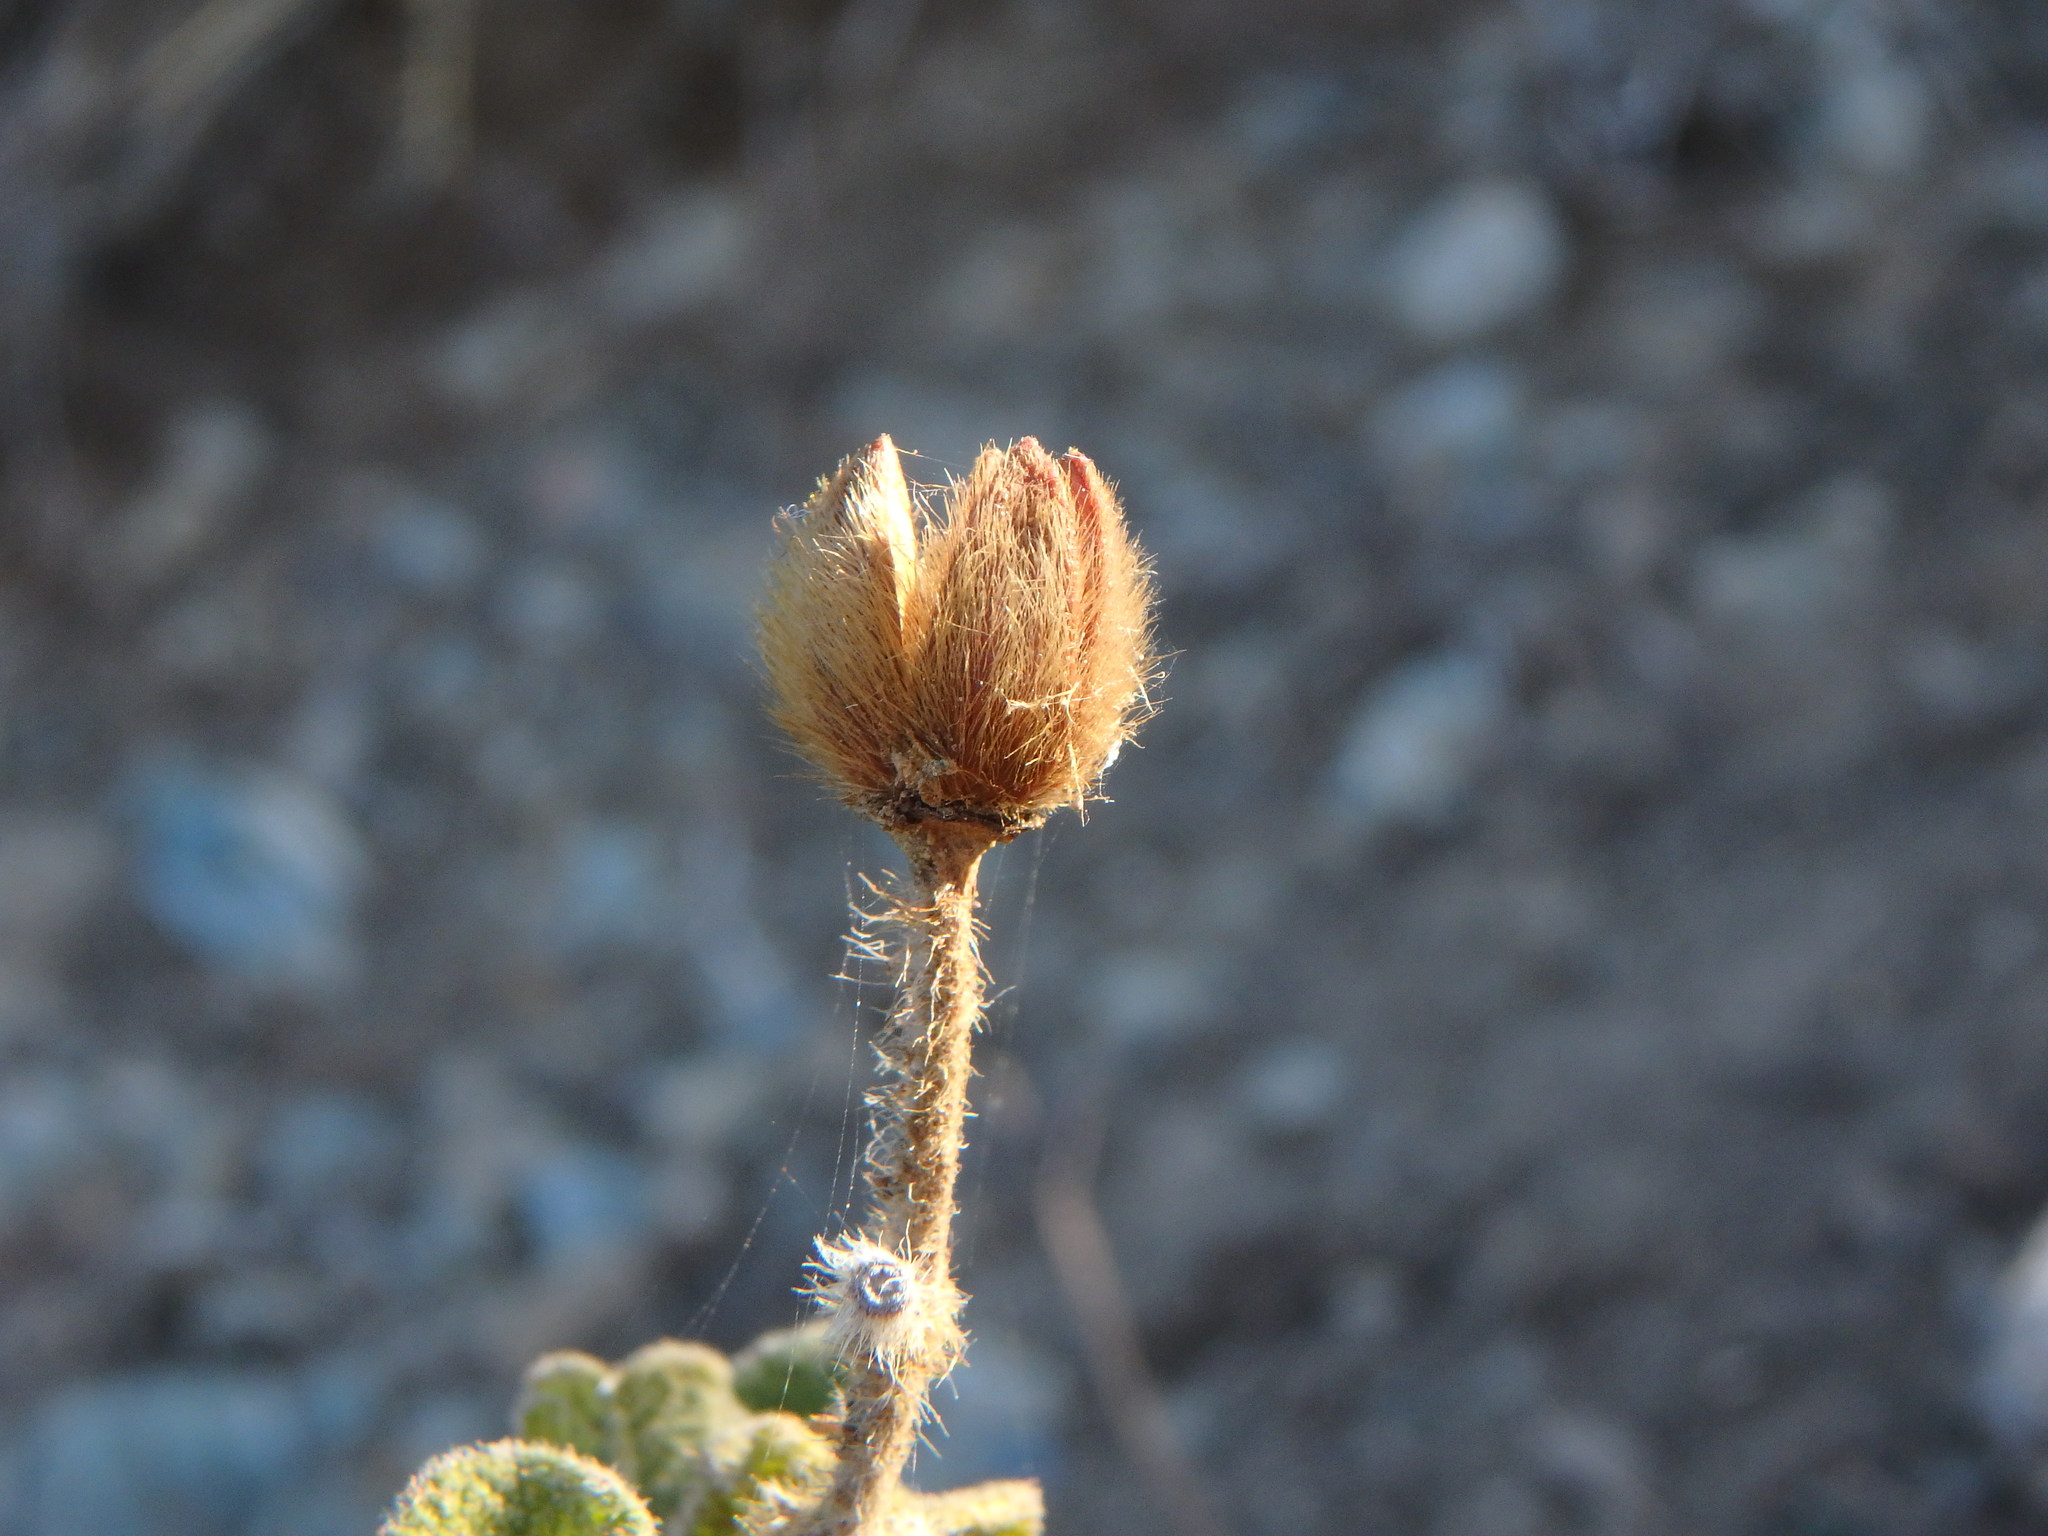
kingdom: Plantae
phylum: Tracheophyta
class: Magnoliopsida
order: Malvales
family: Cistaceae
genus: Cistus
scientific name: Cistus creticus
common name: Cretan rockrose
